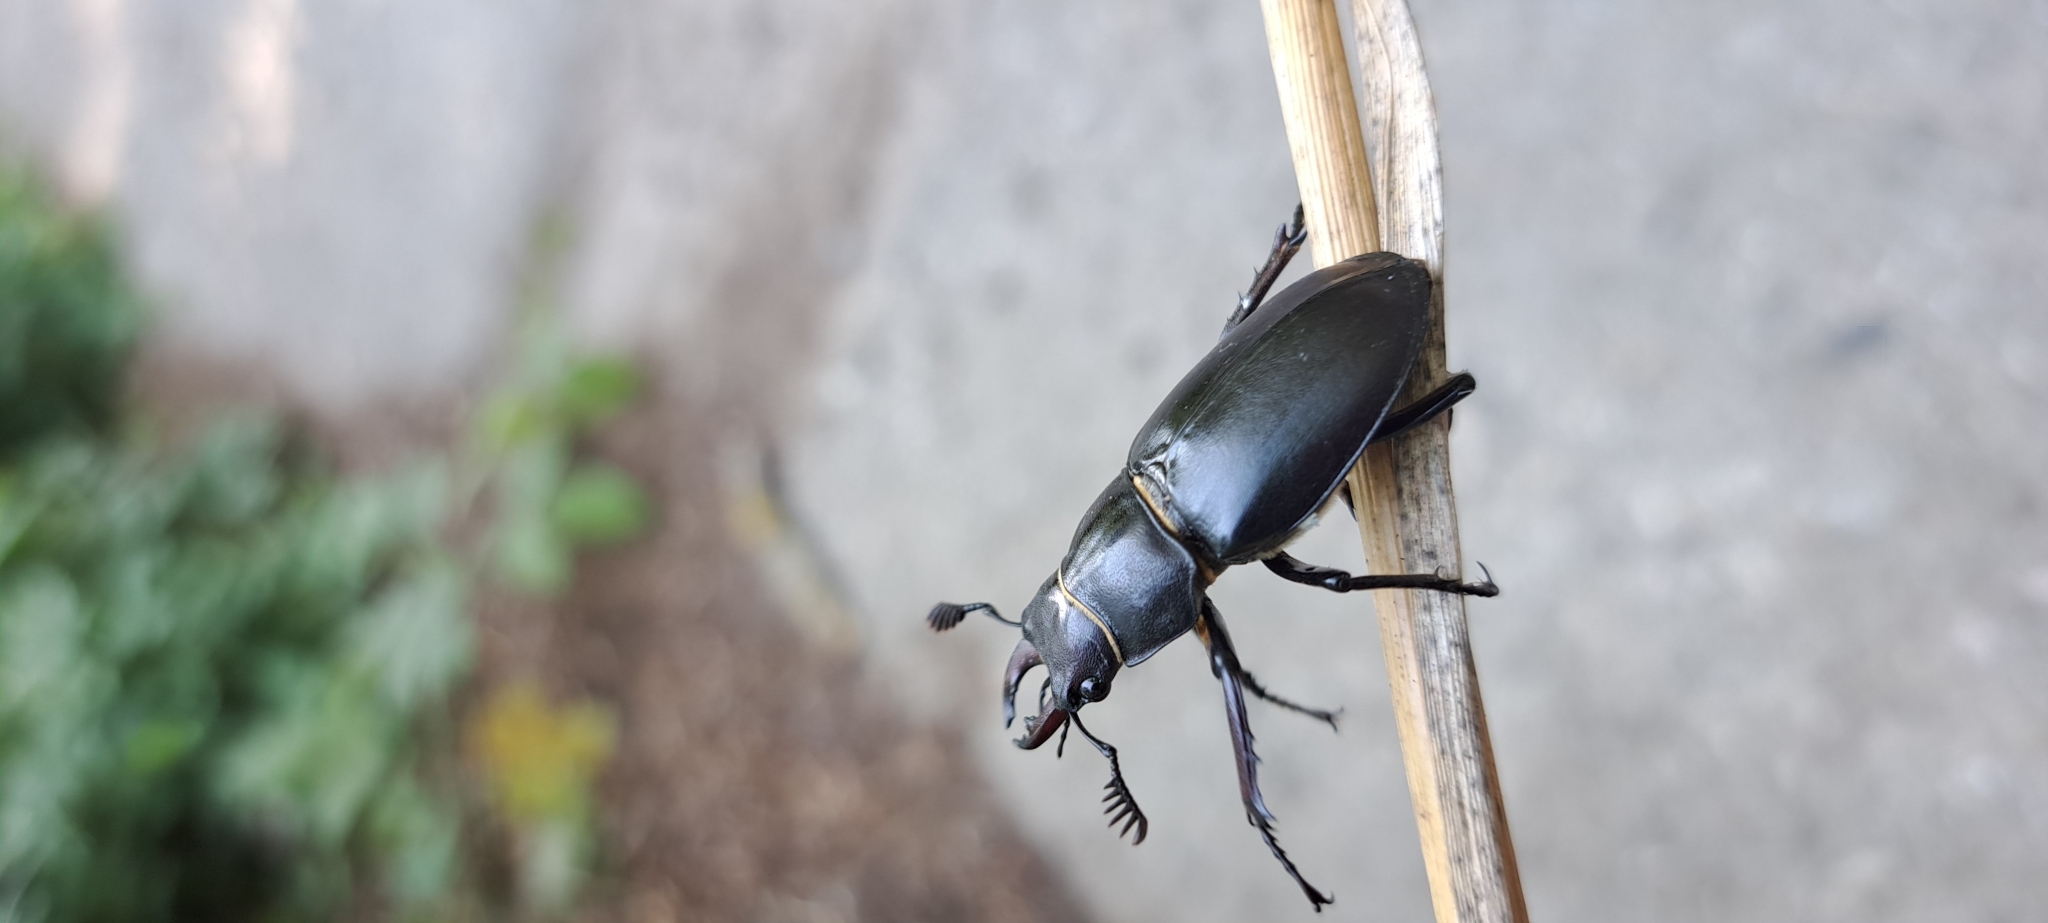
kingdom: Animalia
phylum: Arthropoda
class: Insecta
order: Coleoptera
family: Lucanidae
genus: Lucanus
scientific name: Lucanus ibericus
